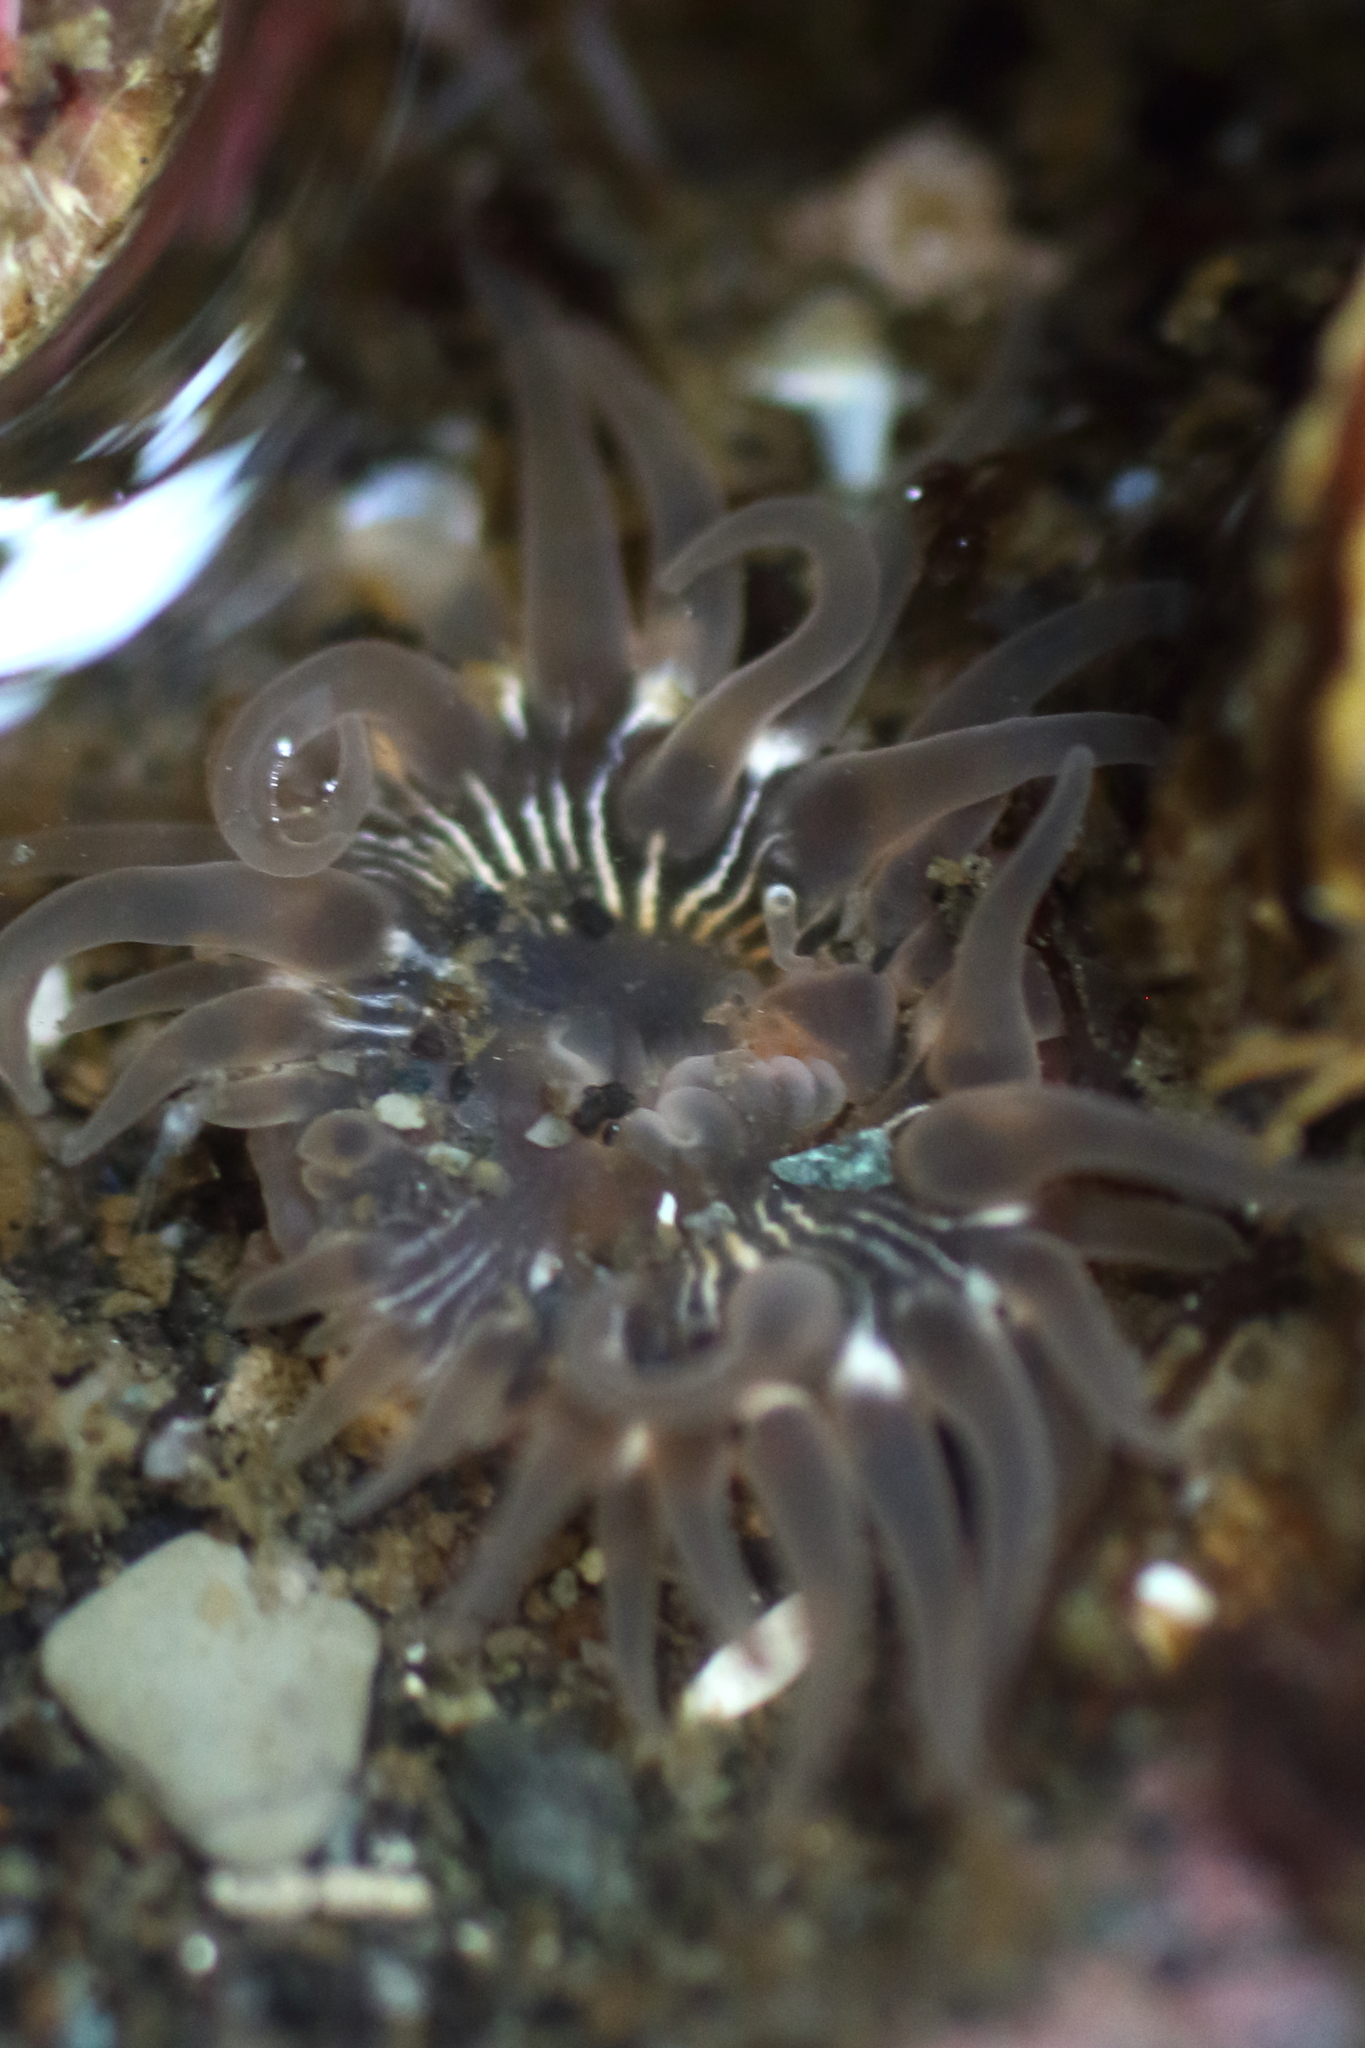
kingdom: Animalia
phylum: Cnidaria
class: Anthozoa
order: Actiniaria
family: Actiniidae
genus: Aulactinia
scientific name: Aulactinia incubans
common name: Incubating anemone
